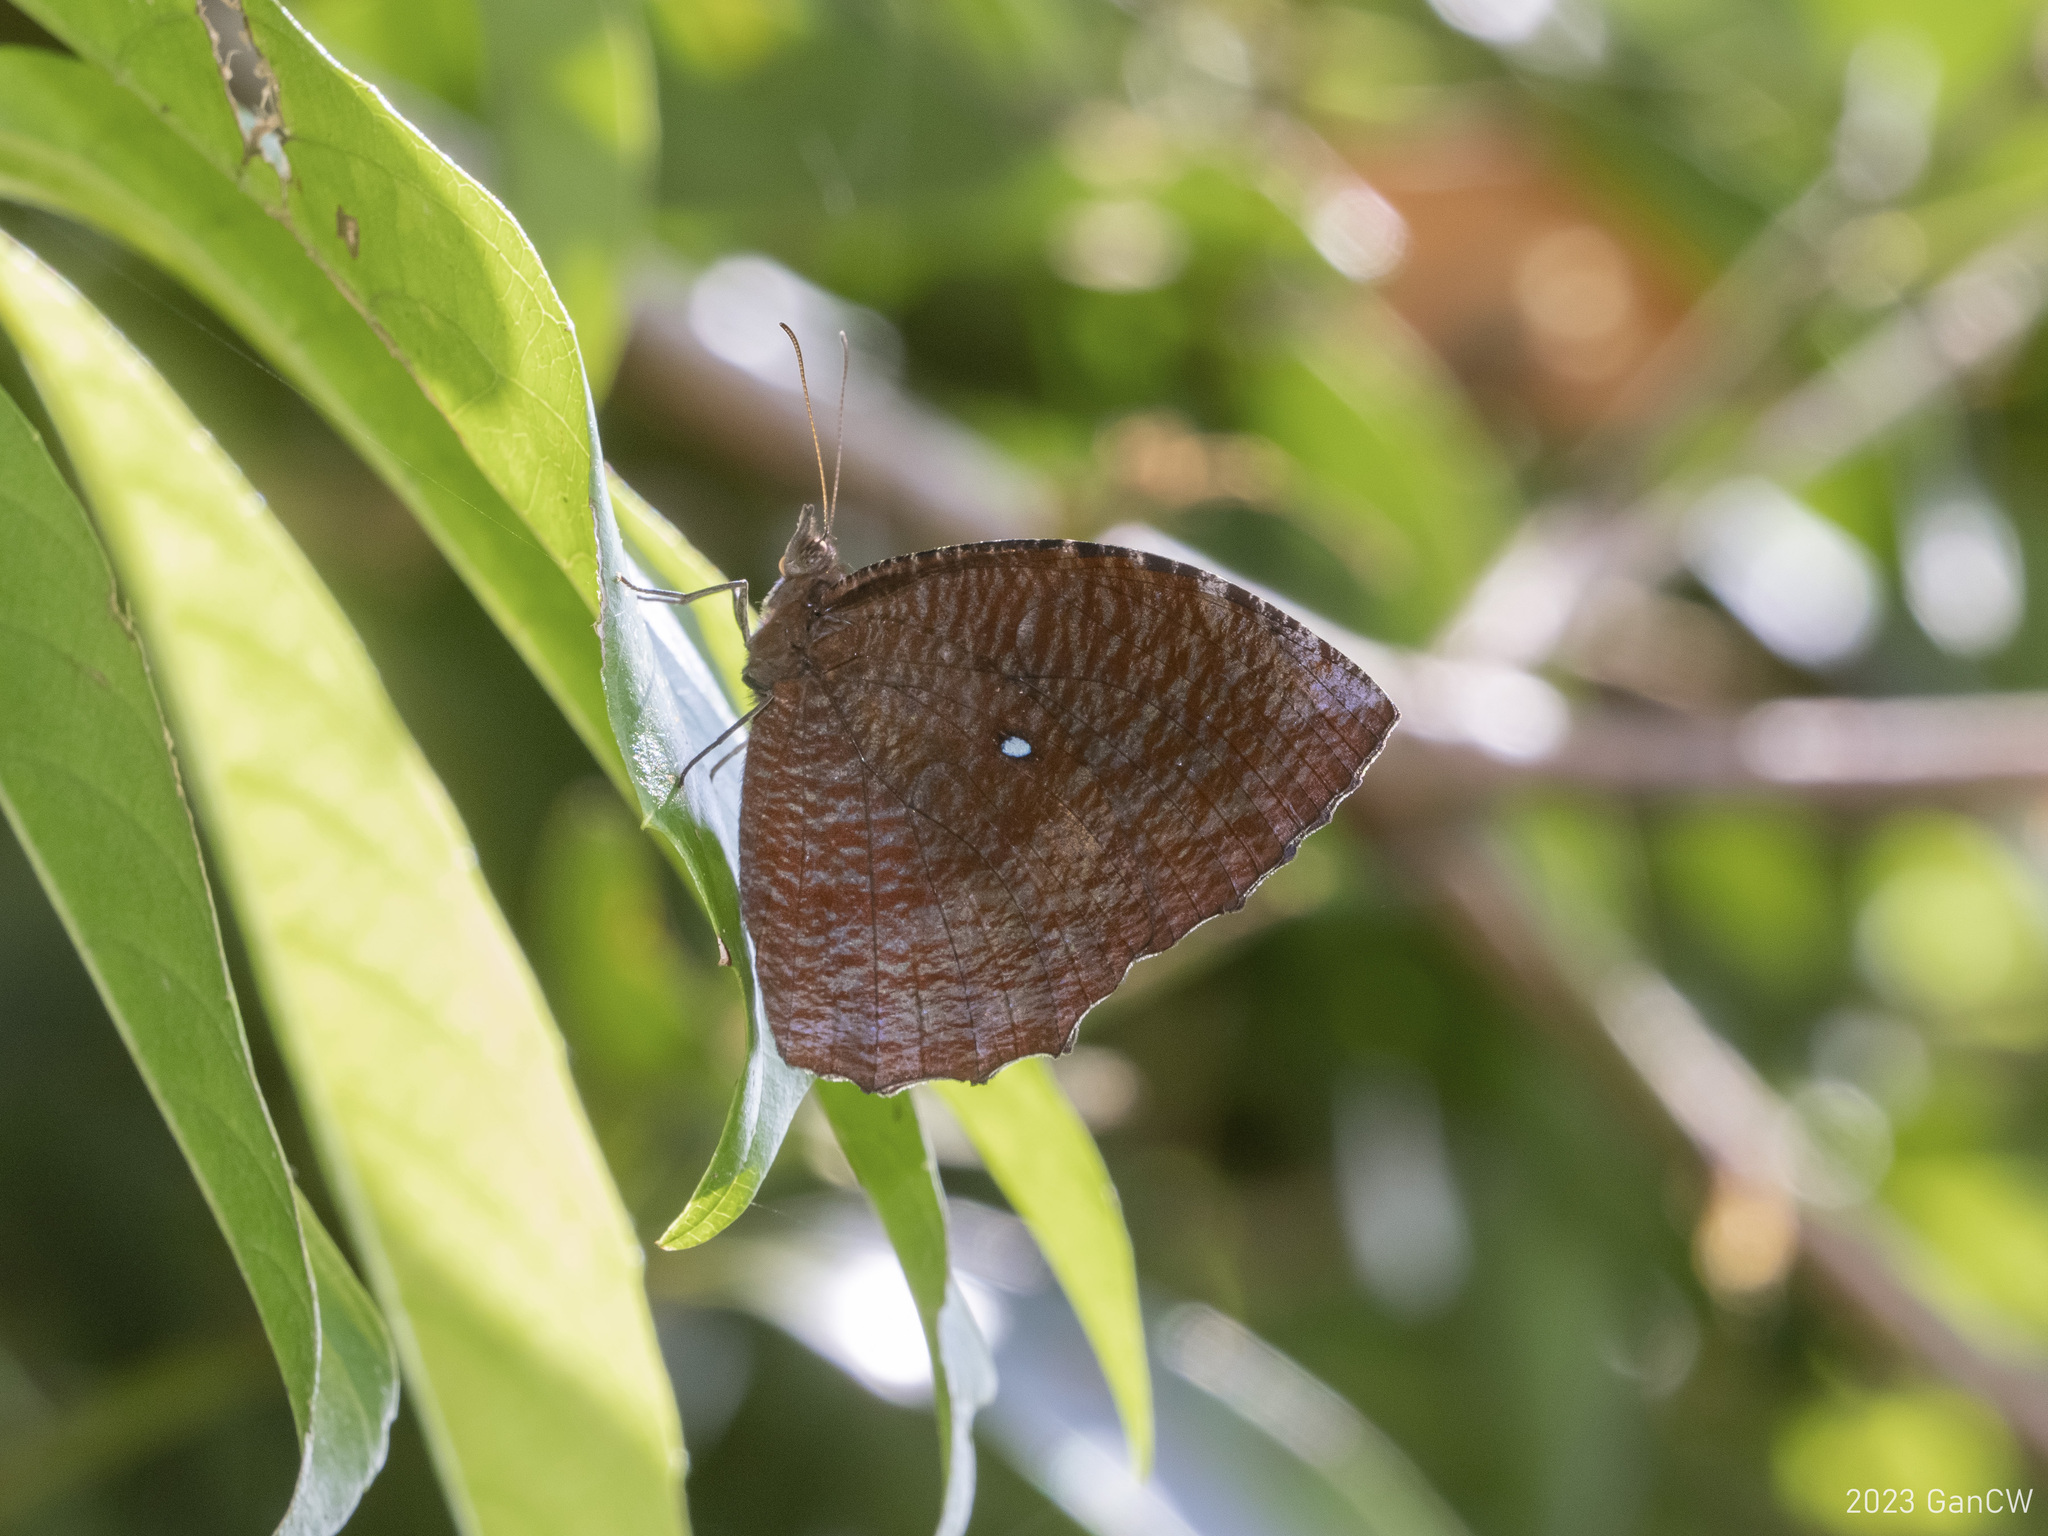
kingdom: Animalia
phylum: Arthropoda
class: Insecta
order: Lepidoptera
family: Nymphalidae
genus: Elymnias
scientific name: Elymnias hypermnestra
